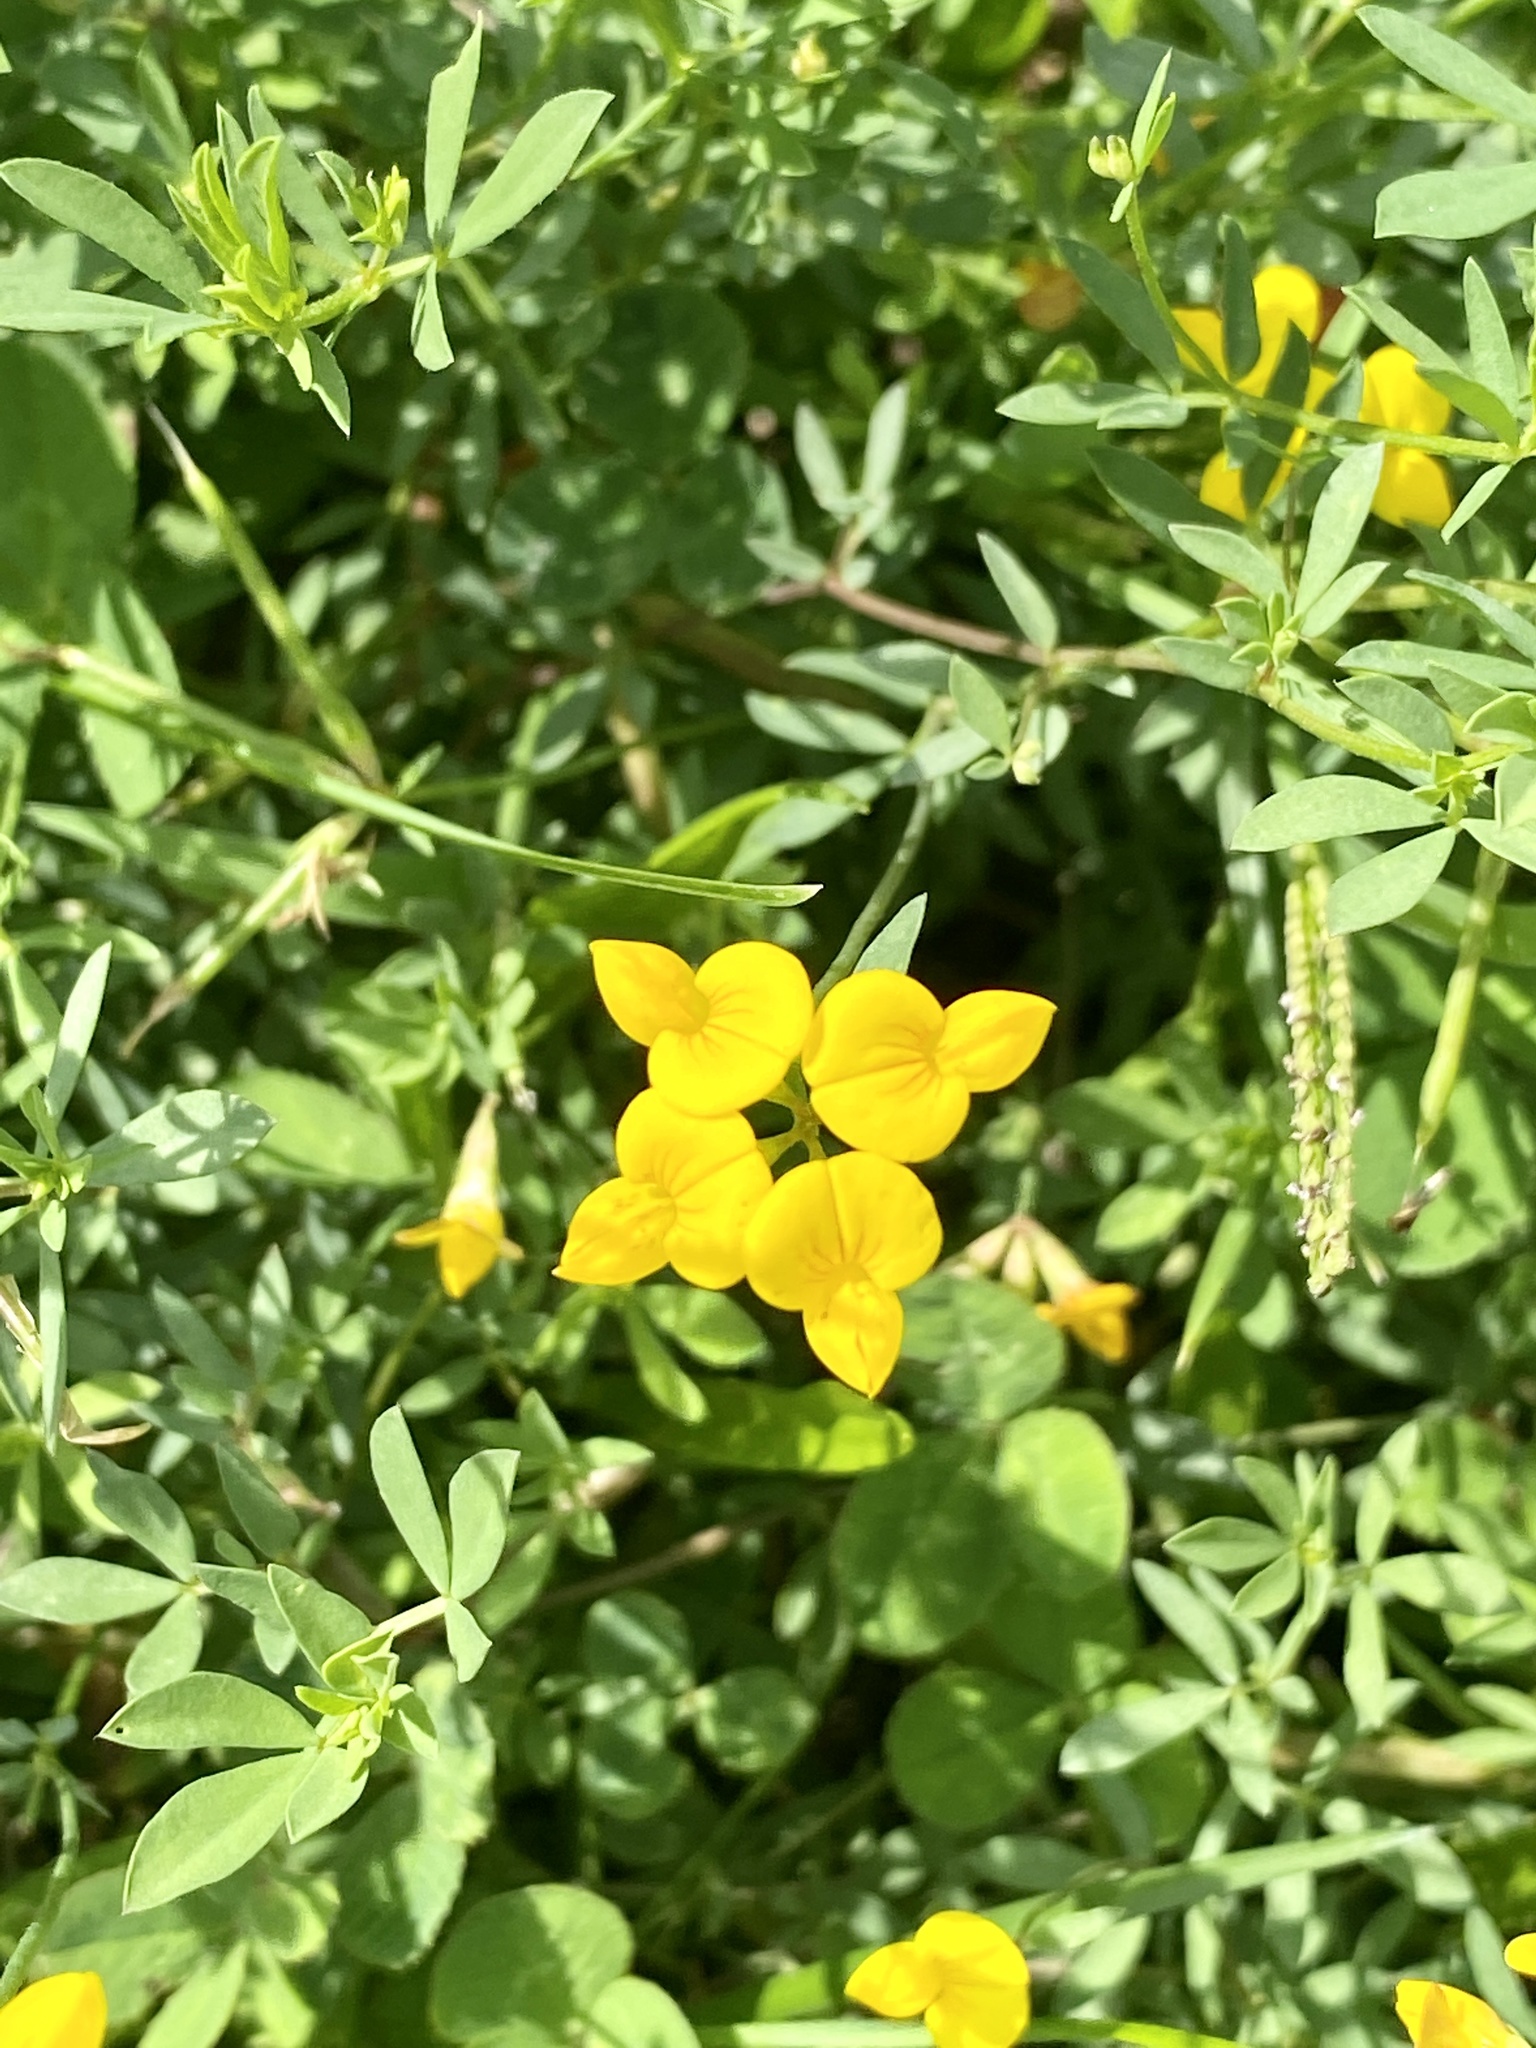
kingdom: Plantae
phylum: Tracheophyta
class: Magnoliopsida
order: Fabales
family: Fabaceae
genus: Lotus
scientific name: Lotus corniculatus
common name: Common bird's-foot-trefoil
